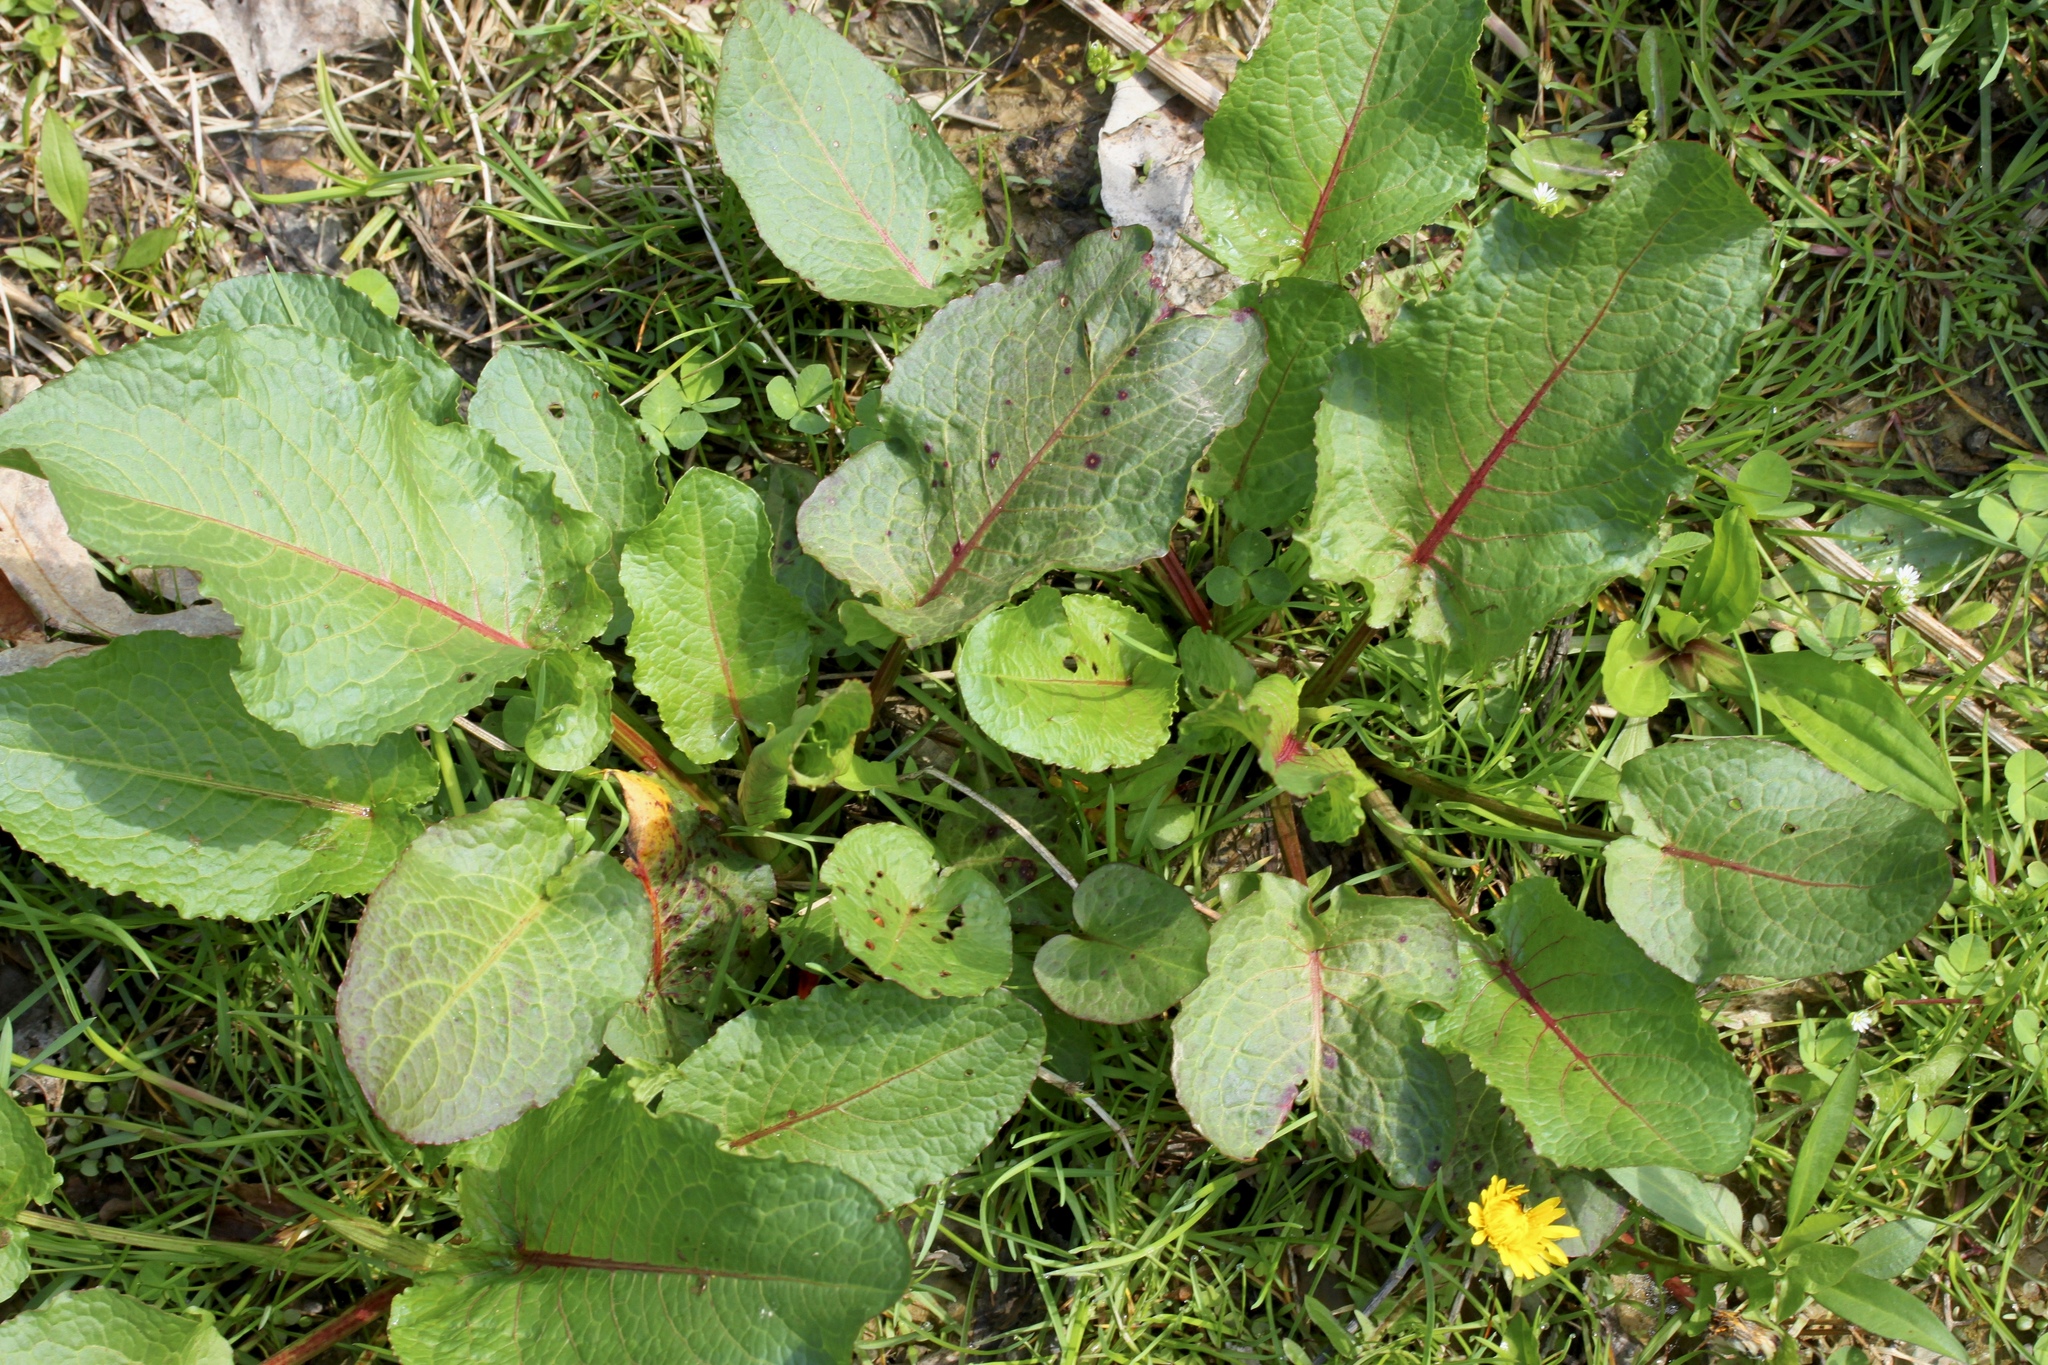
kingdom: Plantae
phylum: Tracheophyta
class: Magnoliopsida
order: Caryophyllales
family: Polygonaceae
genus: Rumex
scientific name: Rumex obtusifolius
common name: Bitter dock
